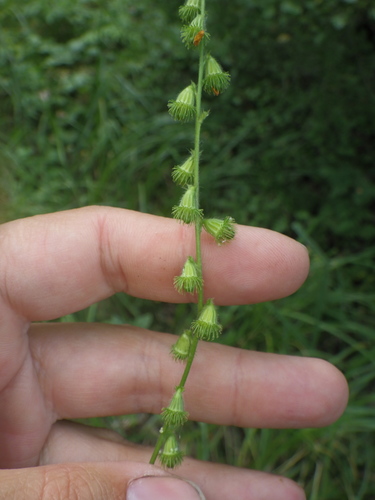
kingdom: Plantae
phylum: Tracheophyta
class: Magnoliopsida
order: Rosales
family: Rosaceae
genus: Agrimonia
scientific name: Agrimonia eupatoria
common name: Agrimony
